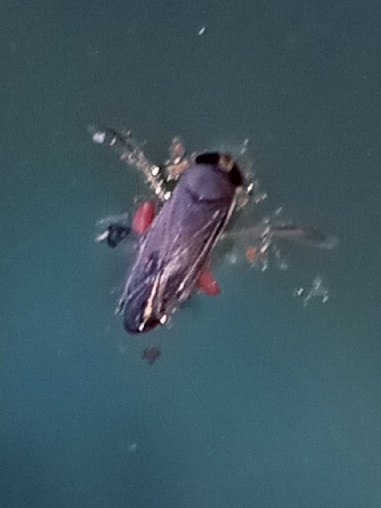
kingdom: Animalia
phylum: Arthropoda
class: Insecta
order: Hemiptera
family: Corixidae
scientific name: Corixidae
